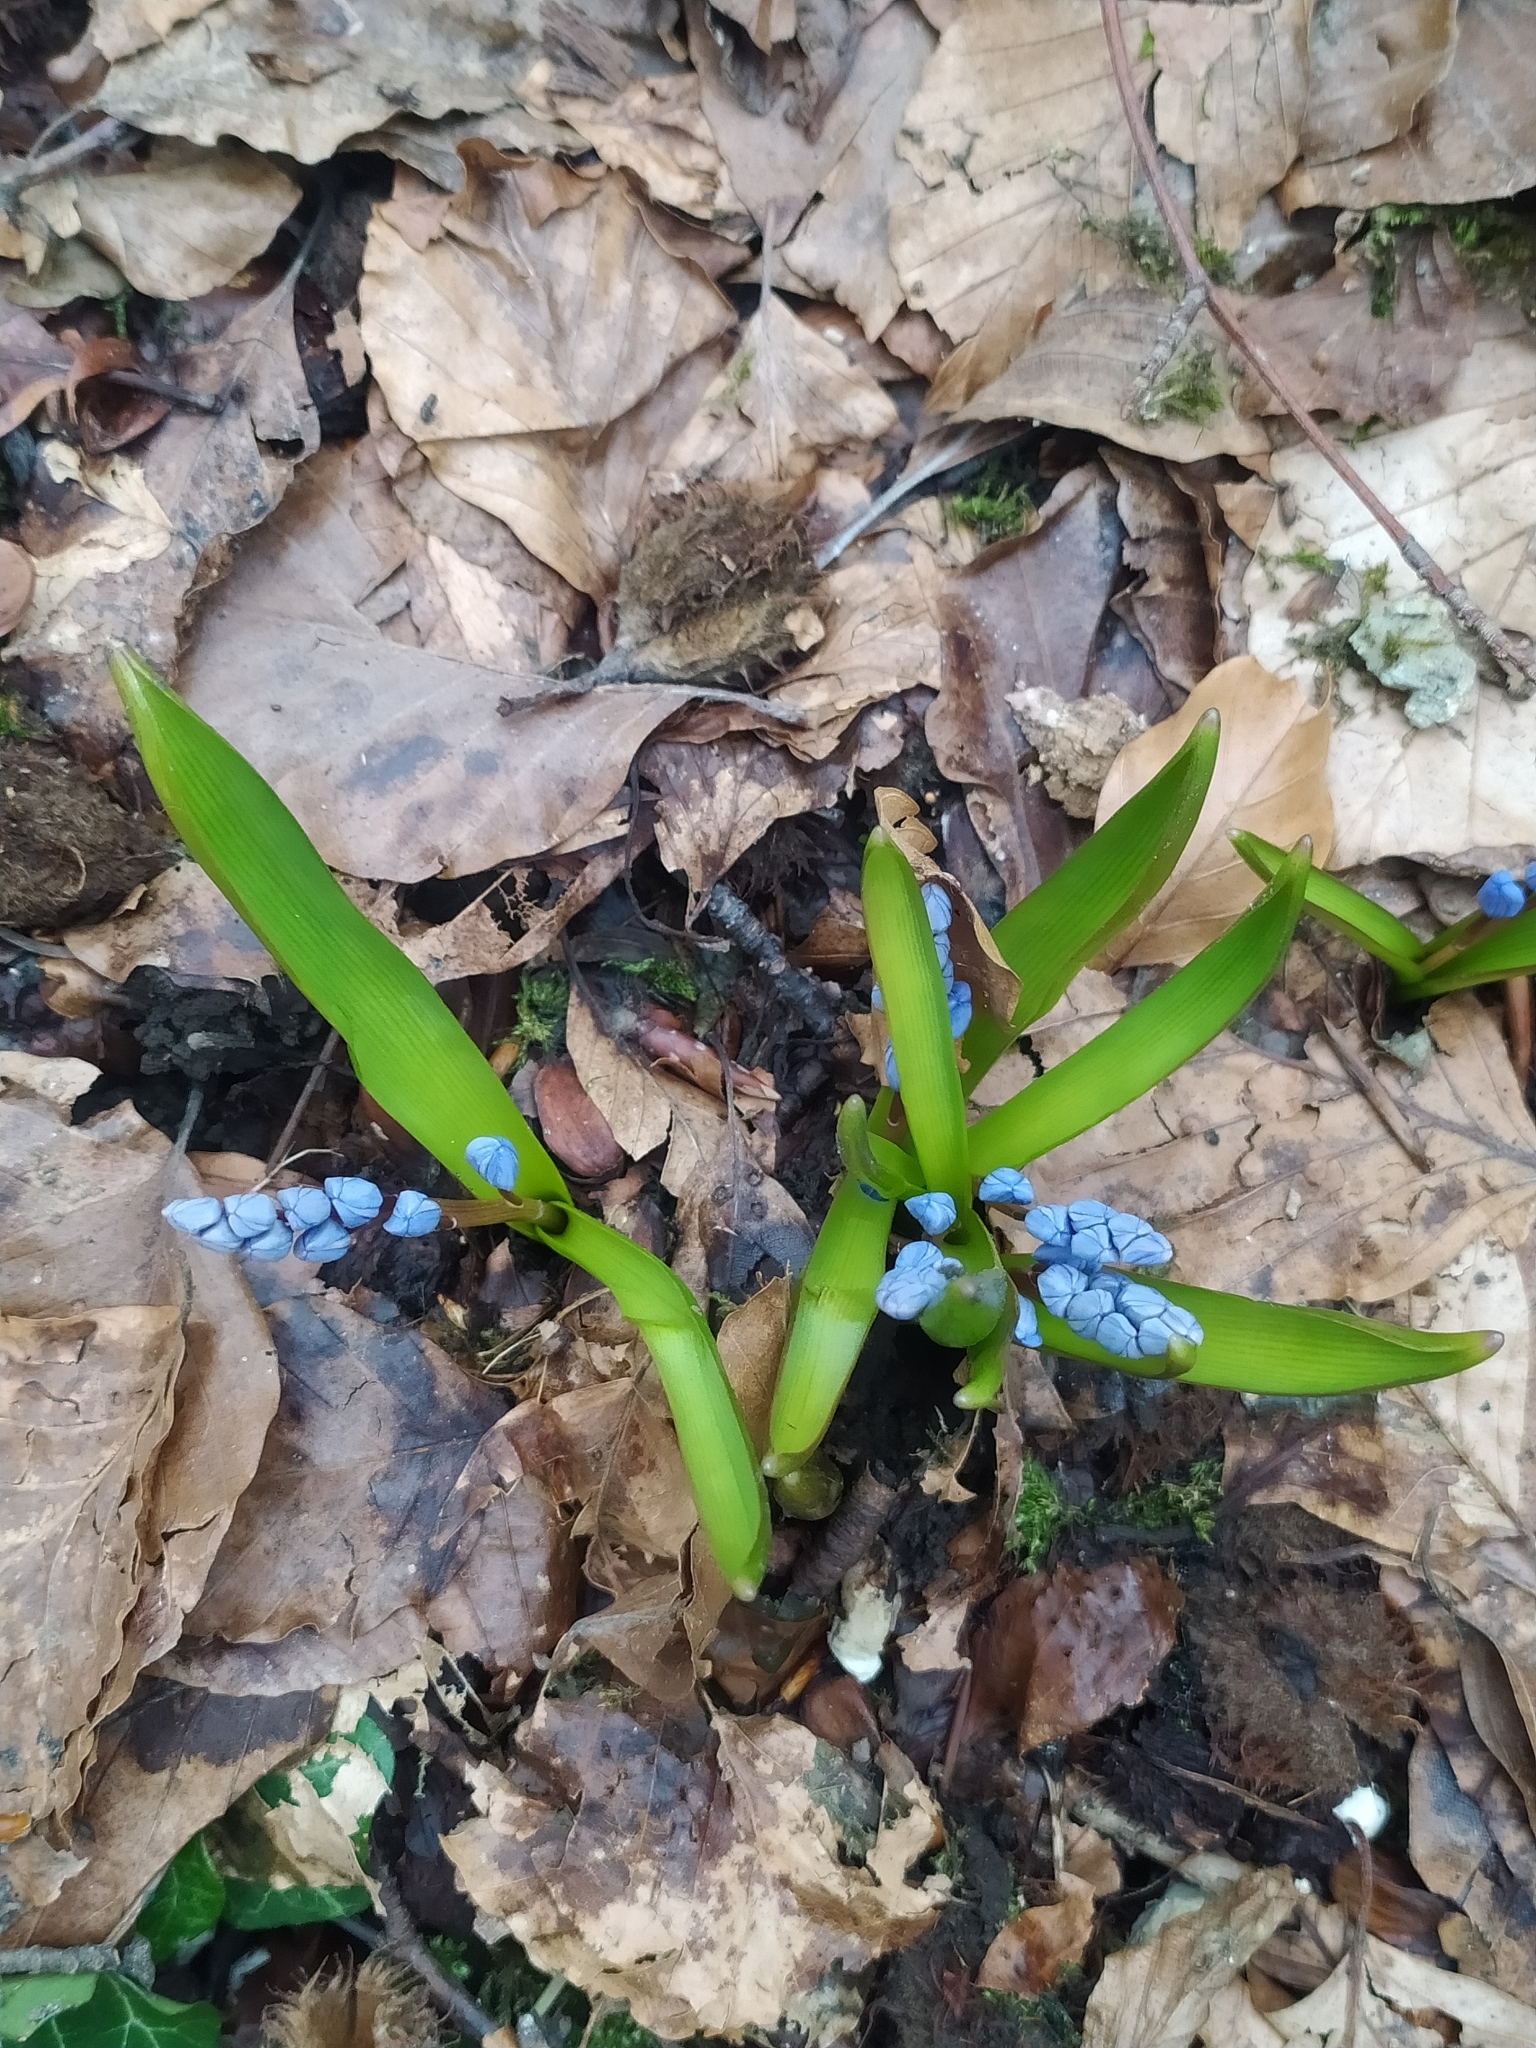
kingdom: Plantae
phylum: Tracheophyta
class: Liliopsida
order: Asparagales
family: Asparagaceae
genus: Scilla
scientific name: Scilla bifolia
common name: Alpine squill
